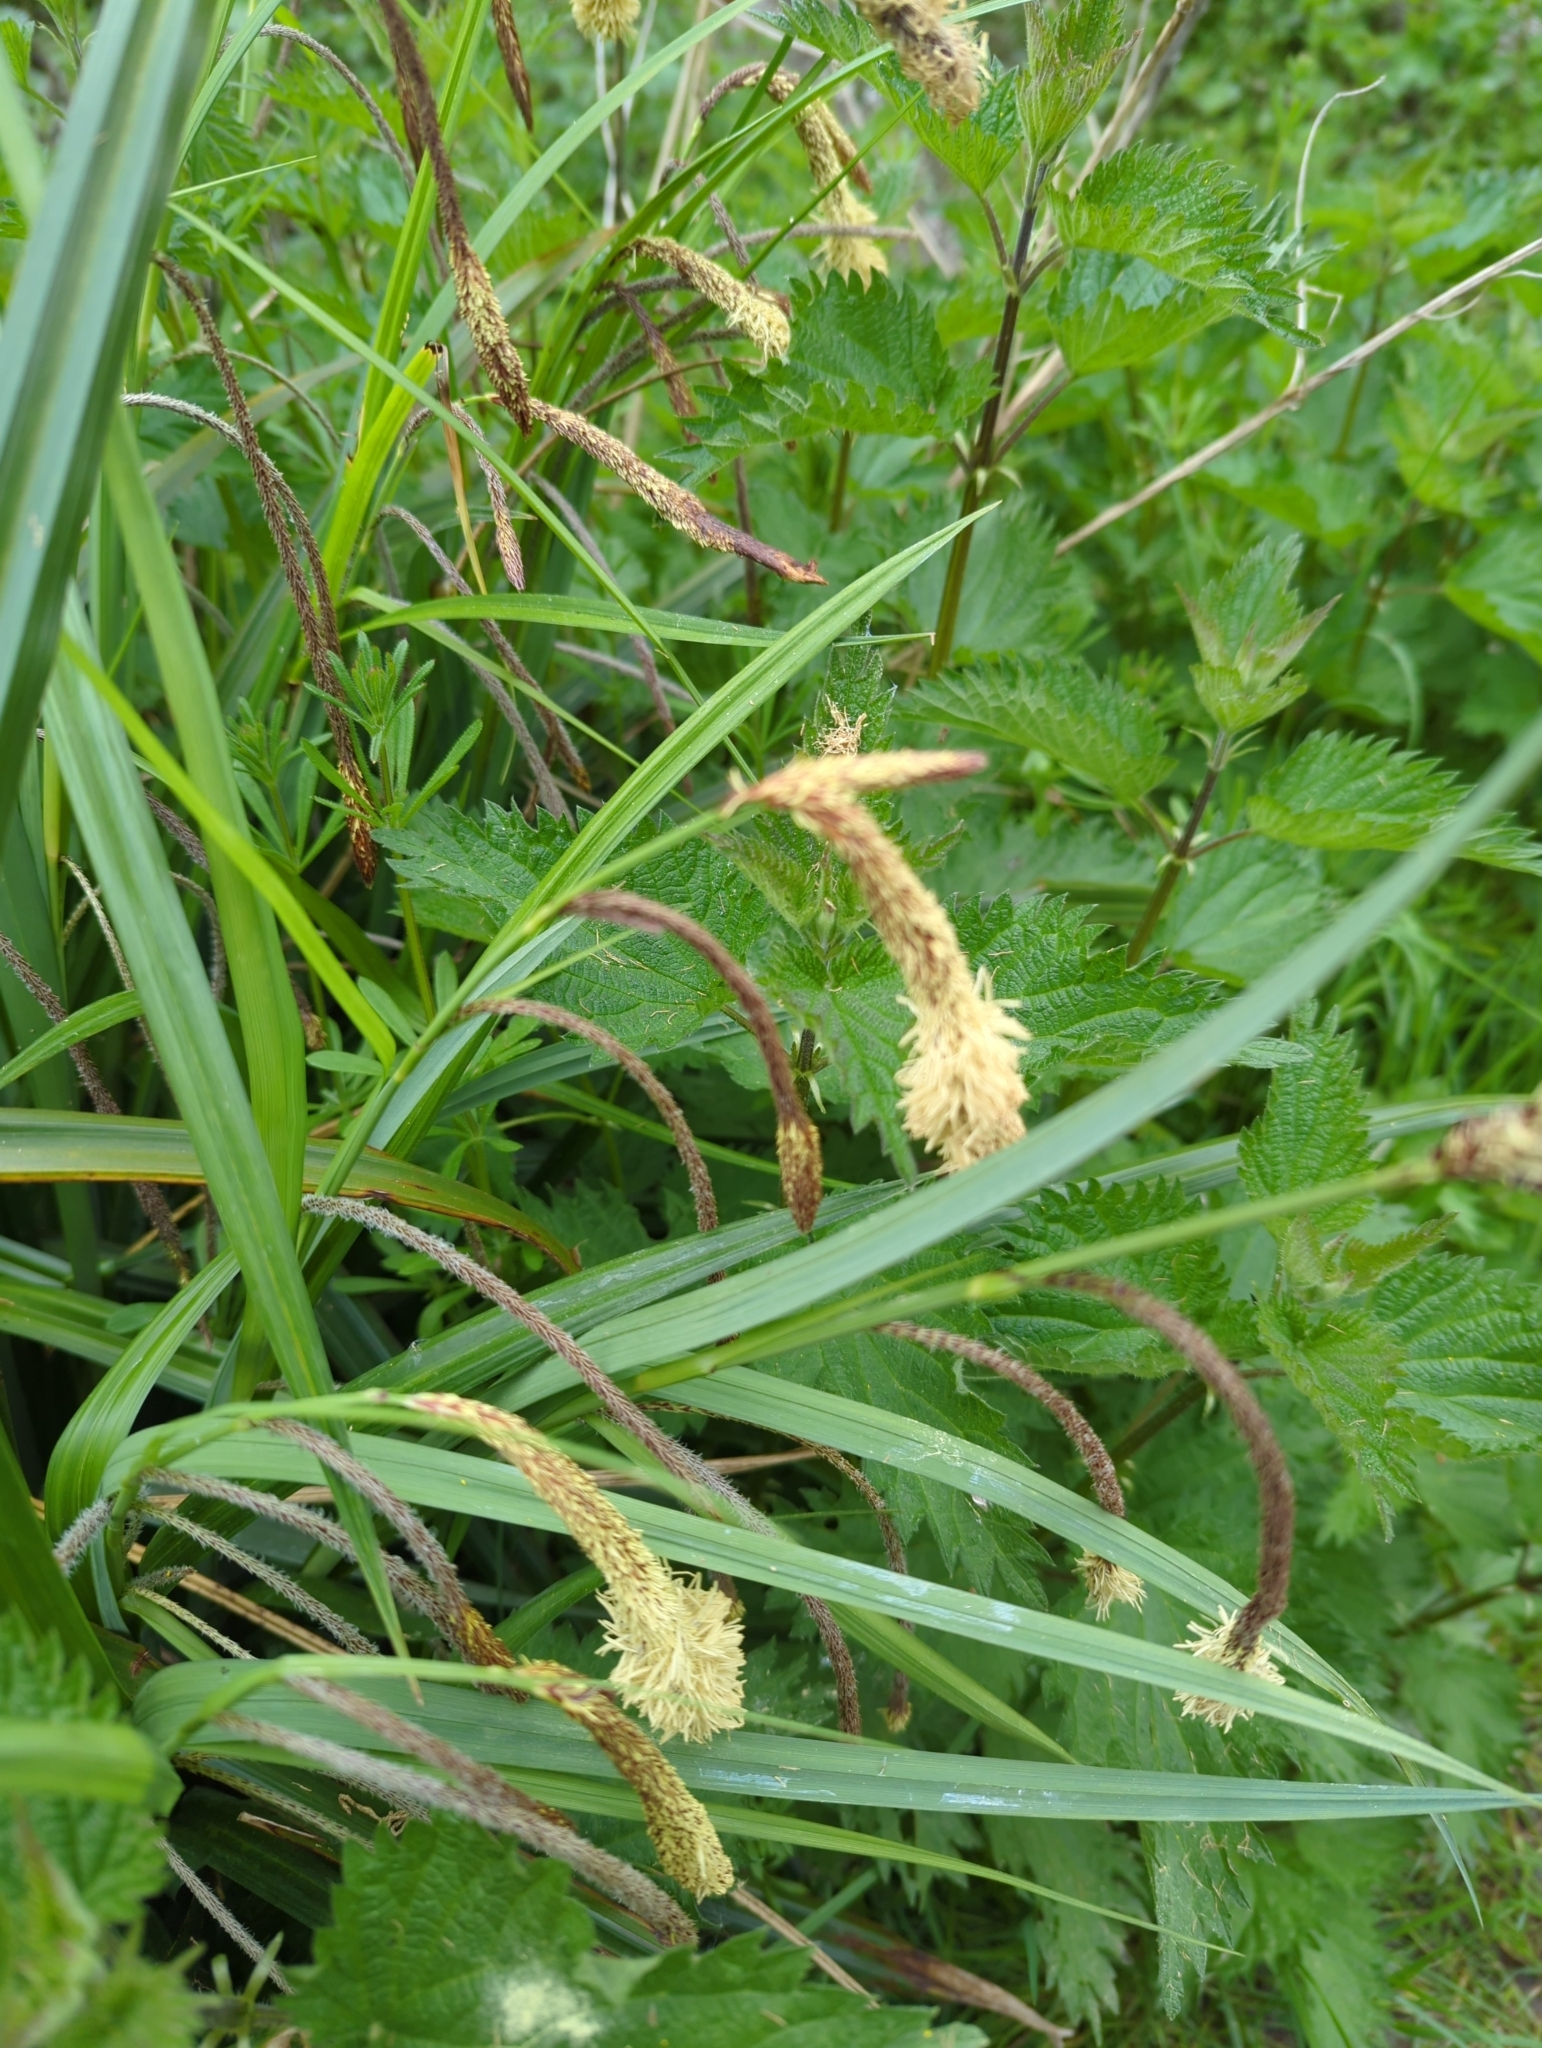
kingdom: Plantae
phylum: Tracheophyta
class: Liliopsida
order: Poales
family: Cyperaceae
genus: Carex
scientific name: Carex pendula
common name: Pendulous sedge
